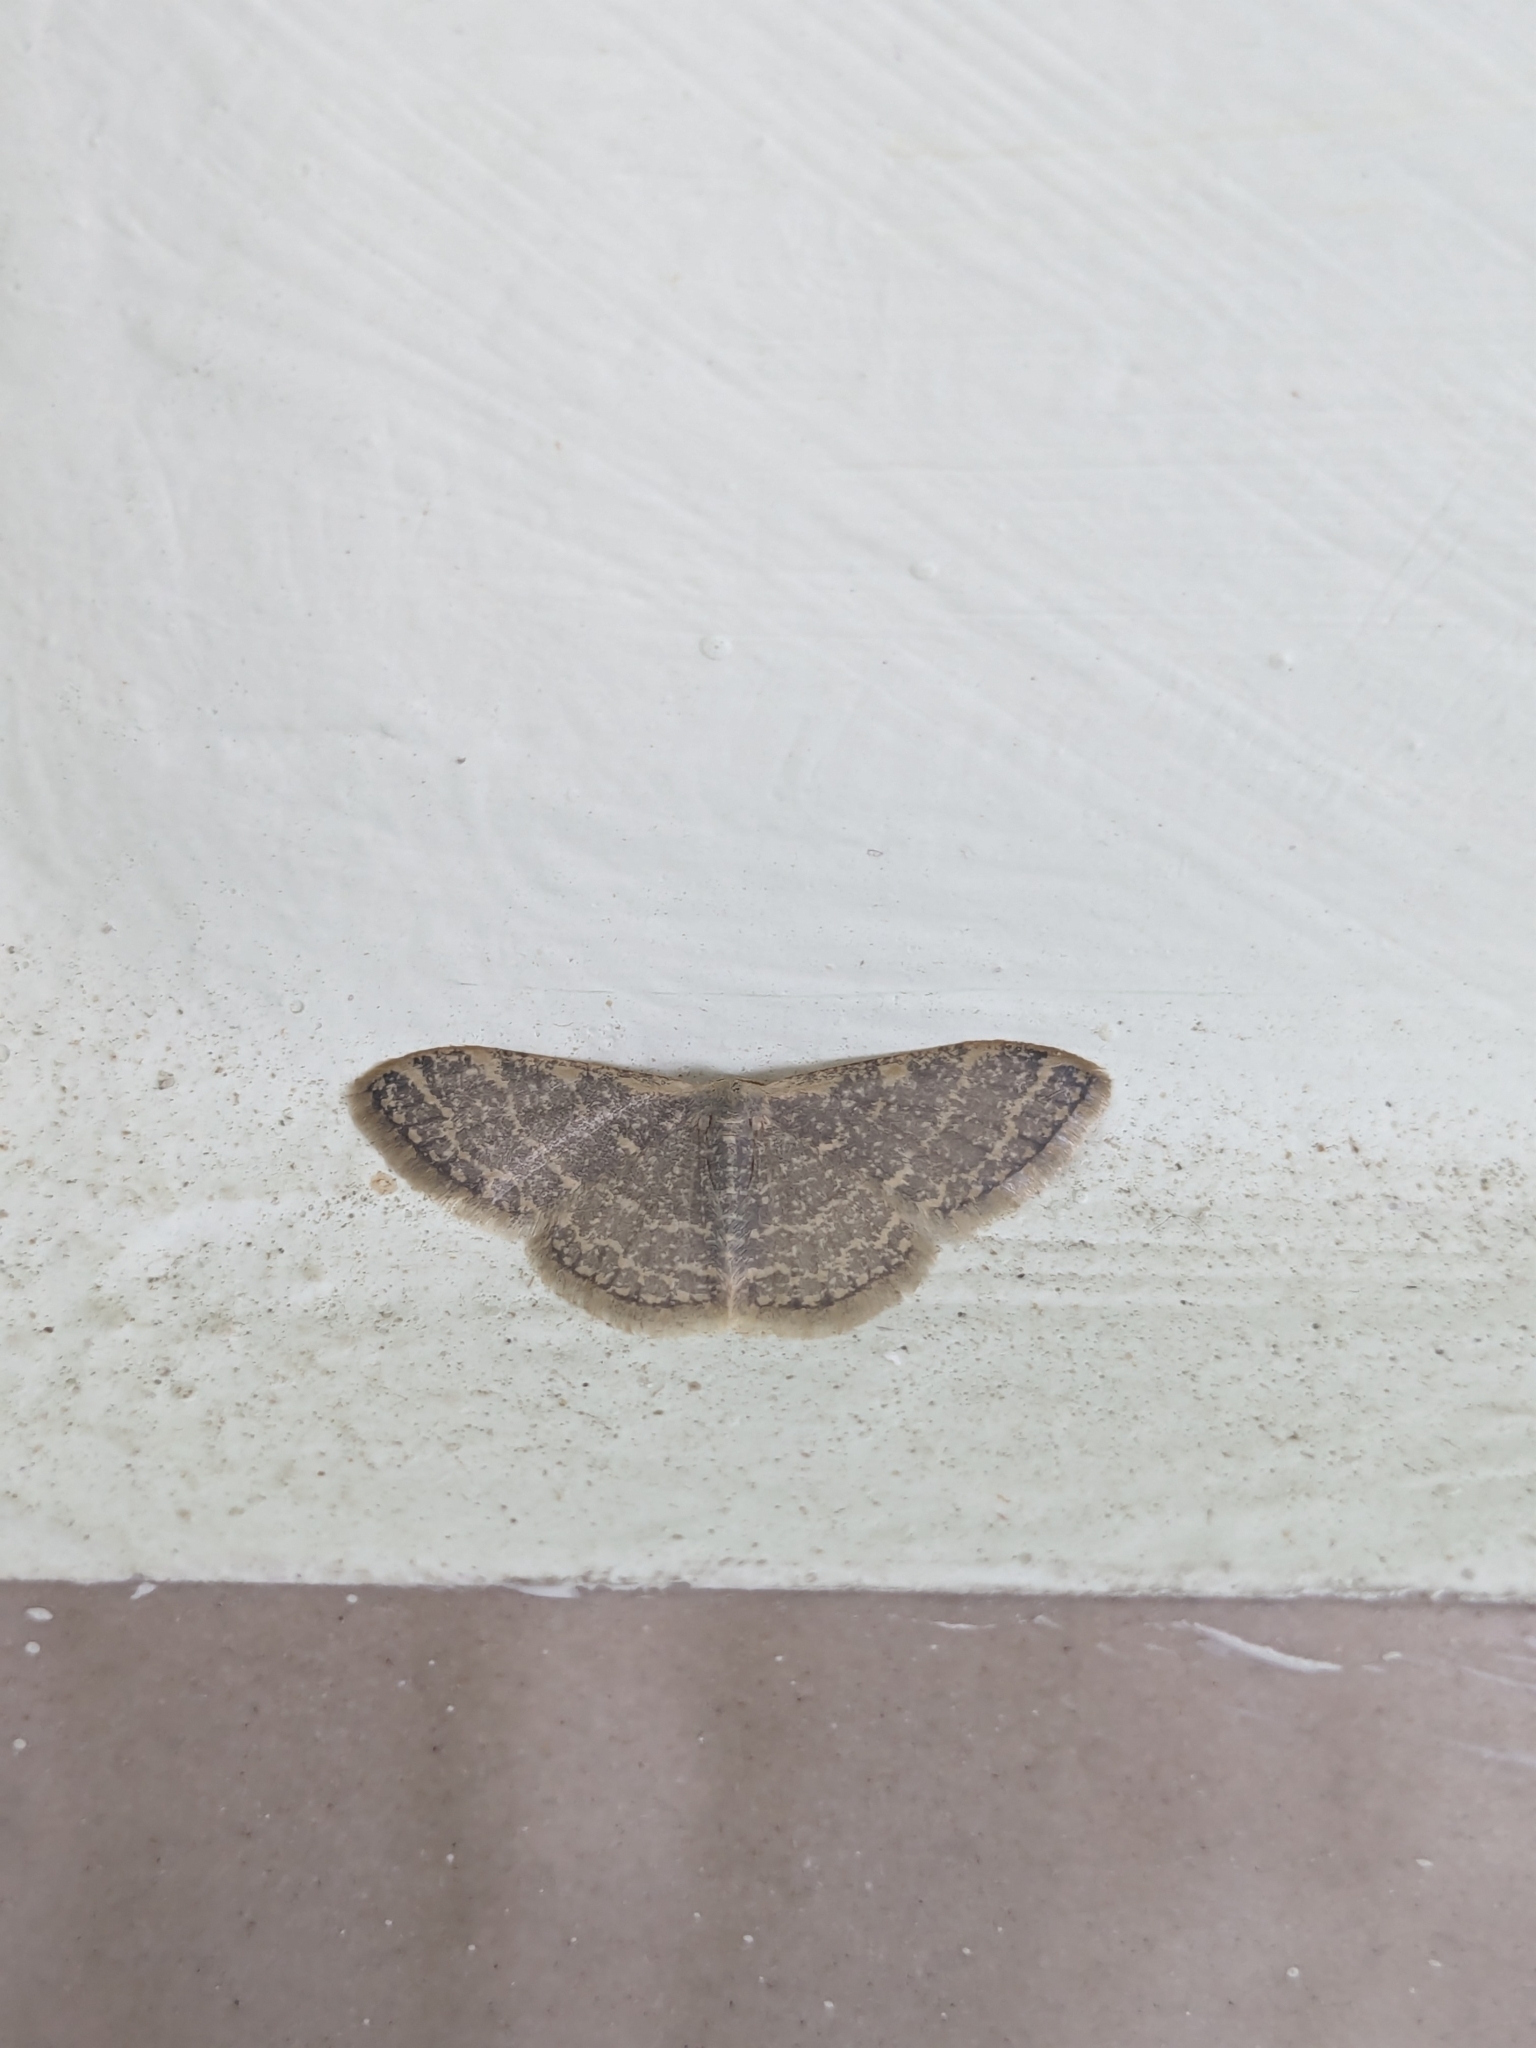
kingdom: Animalia
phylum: Arthropoda
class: Insecta
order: Lepidoptera
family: Geometridae
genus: Idaea
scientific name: Idaea costiguttata
